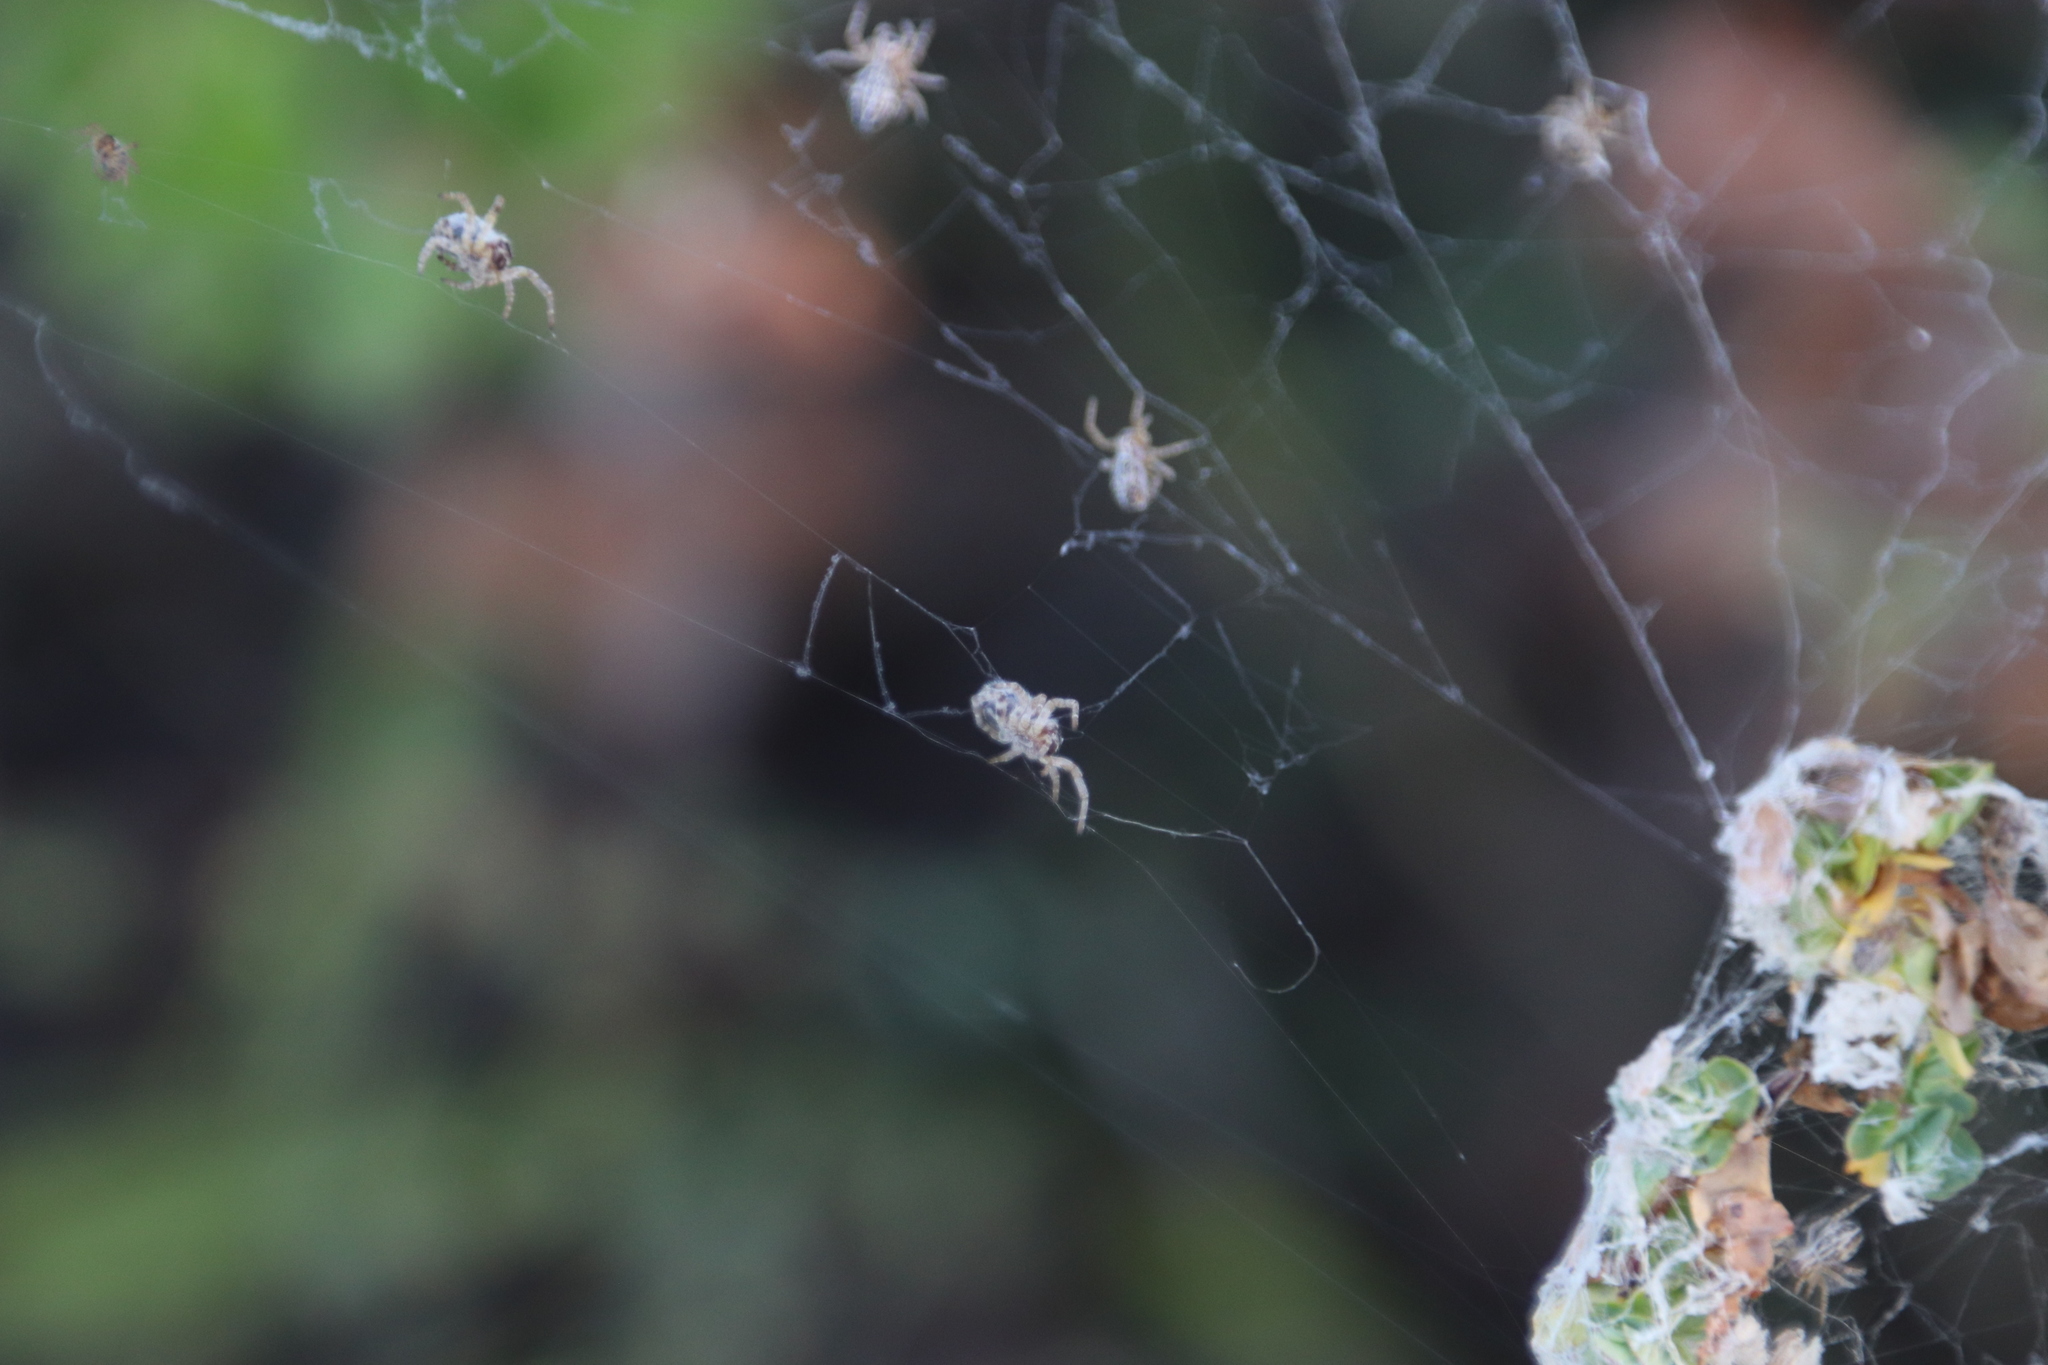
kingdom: Animalia
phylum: Arthropoda
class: Arachnida
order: Araneae
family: Eresidae
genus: Stegodyphus
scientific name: Stegodyphus dumicola
